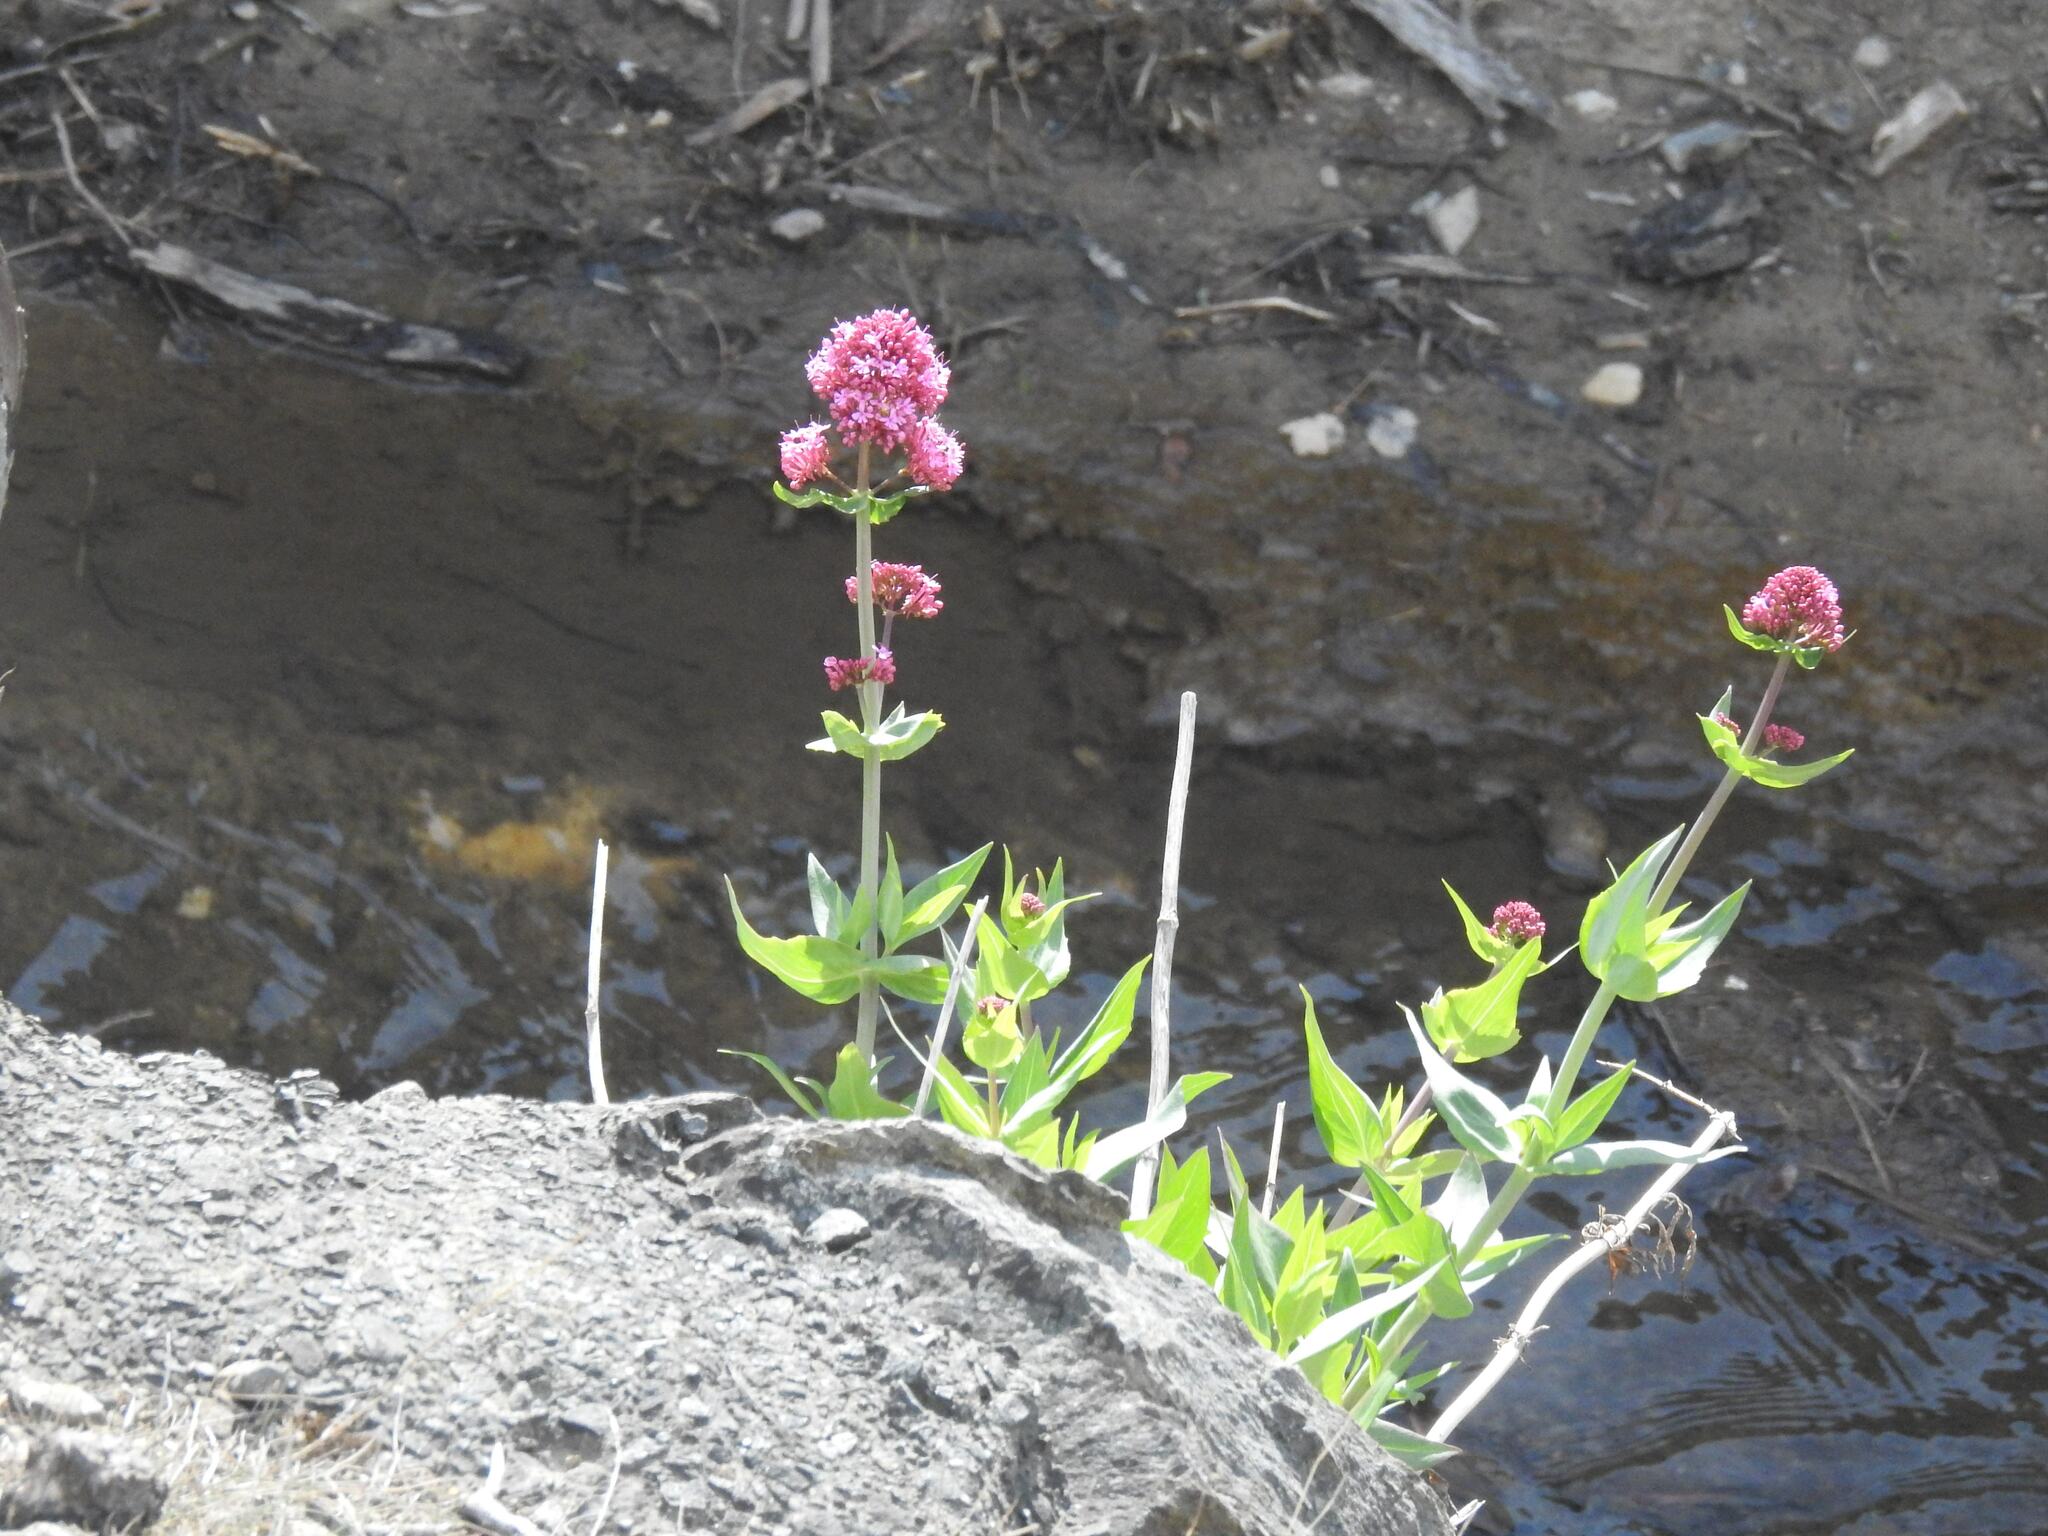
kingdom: Plantae
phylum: Tracheophyta
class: Magnoliopsida
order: Dipsacales
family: Caprifoliaceae
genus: Centranthus
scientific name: Centranthus ruber
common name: Red valerian
